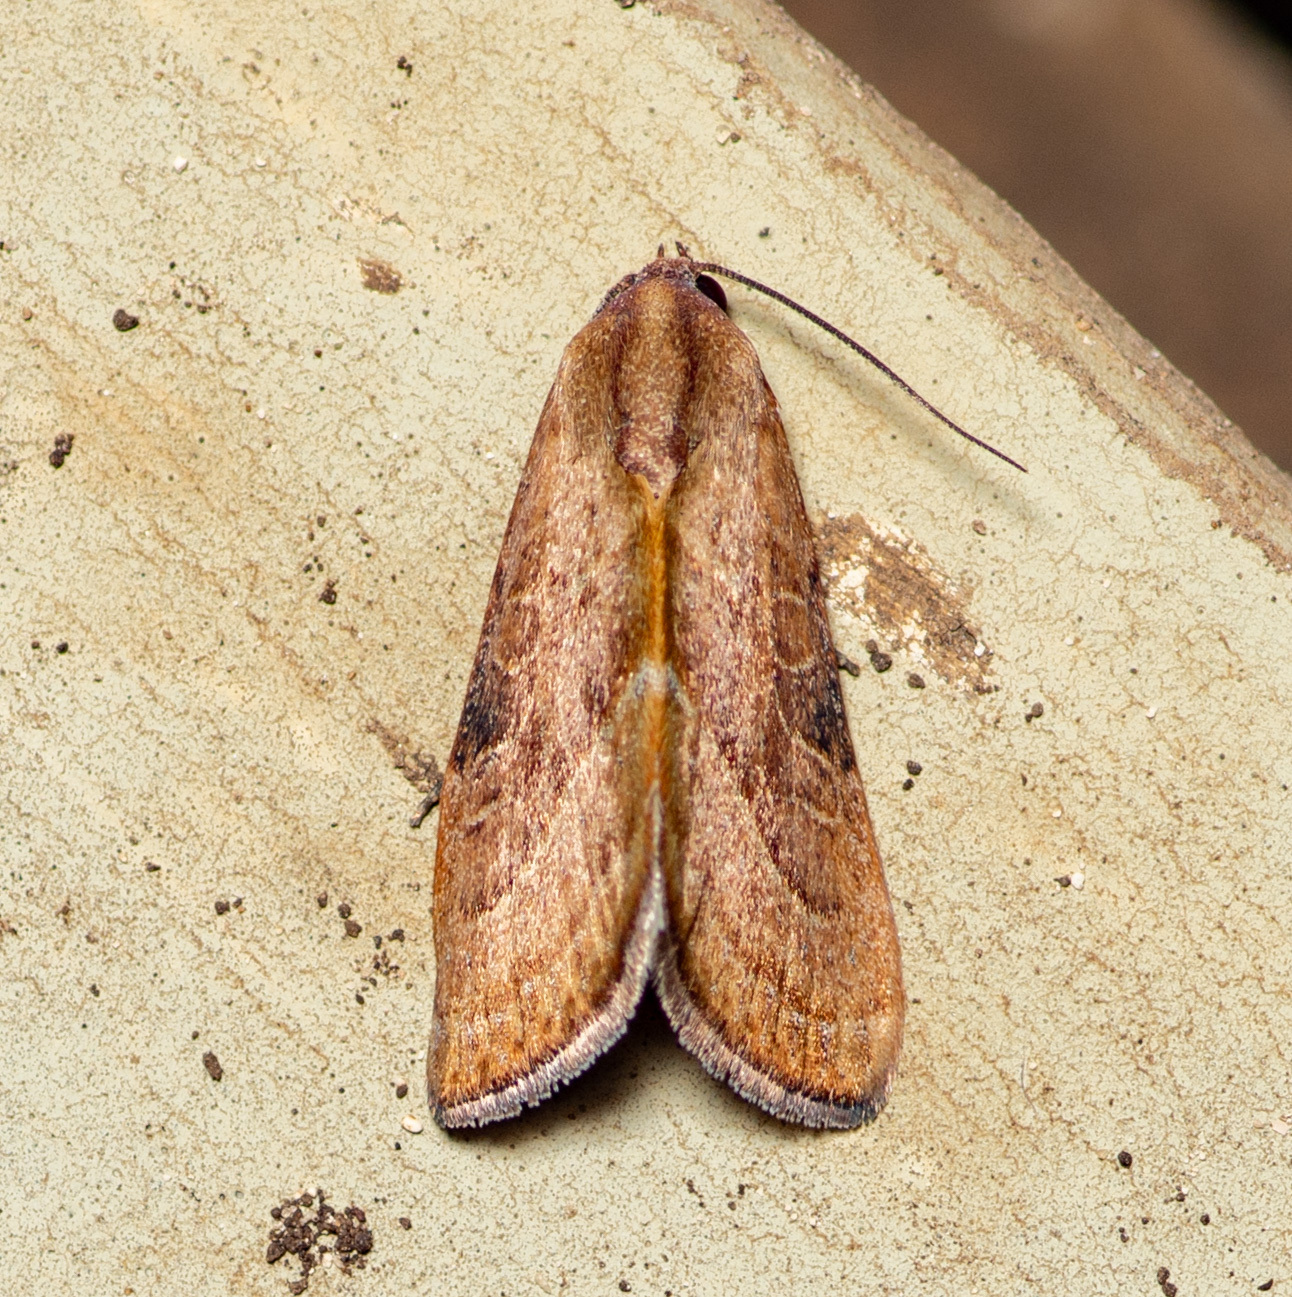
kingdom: Animalia
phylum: Arthropoda
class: Insecta
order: Lepidoptera
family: Noctuidae
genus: Galgula
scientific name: Galgula partita
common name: Wedgeling
